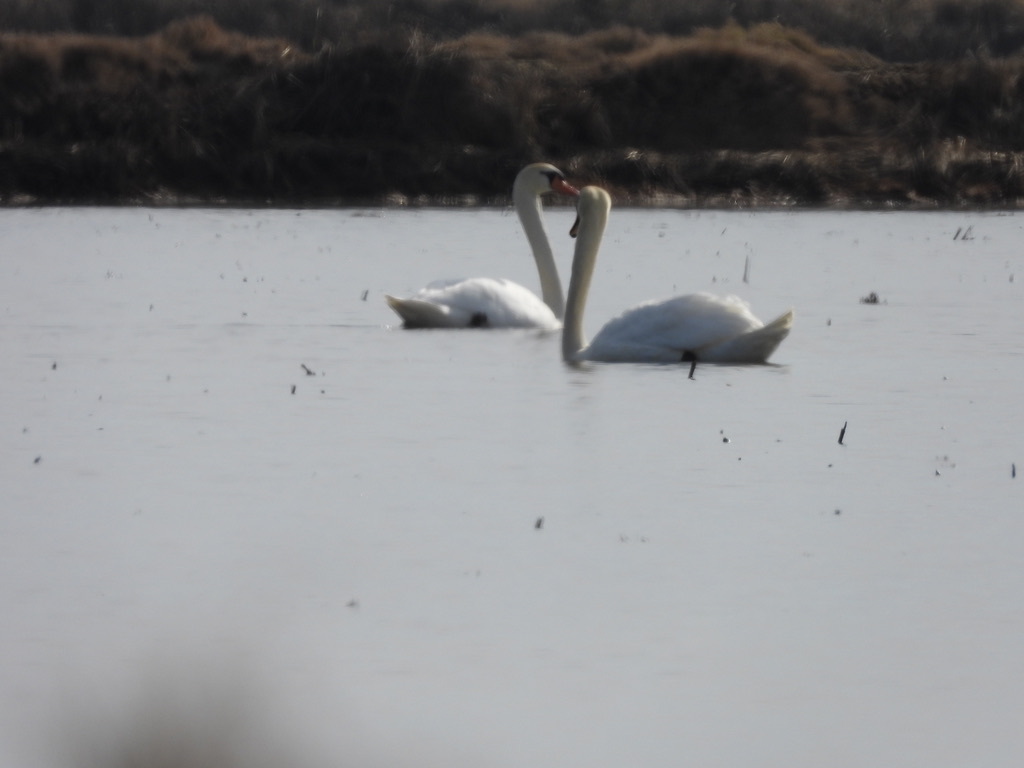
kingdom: Animalia
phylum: Chordata
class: Aves
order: Anseriformes
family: Anatidae
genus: Cygnus
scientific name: Cygnus olor
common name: Mute swan
